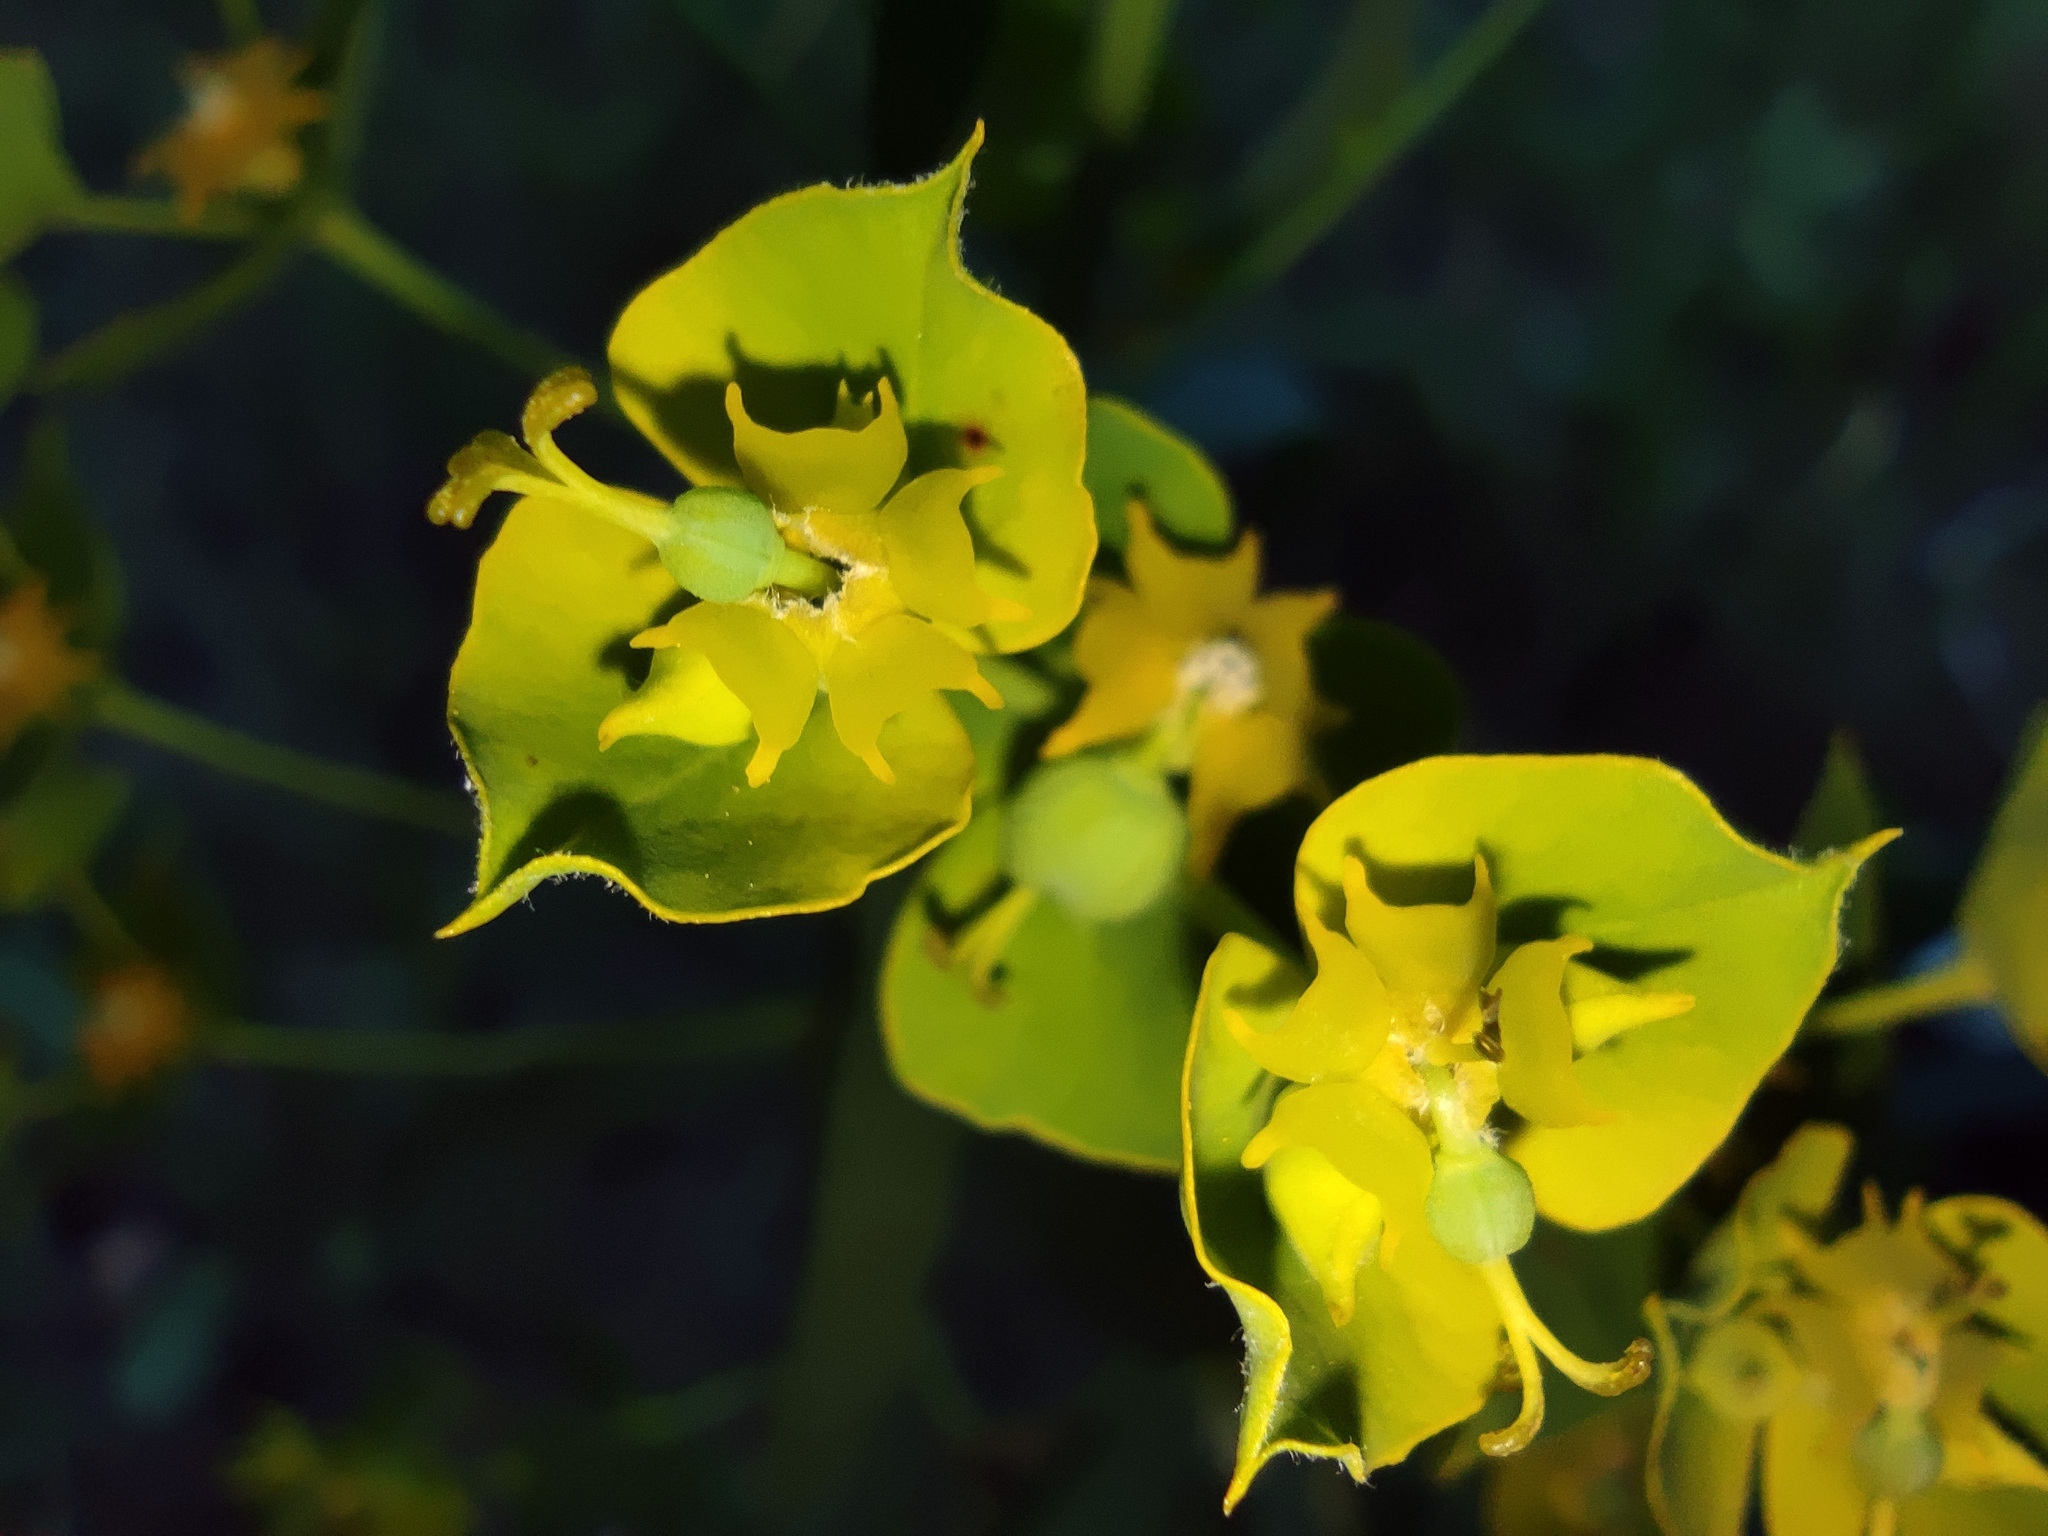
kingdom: Plantae
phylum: Tracheophyta
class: Magnoliopsida
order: Malpighiales
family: Euphorbiaceae
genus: Euphorbia
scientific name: Euphorbia virgata
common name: Leafy spurge
